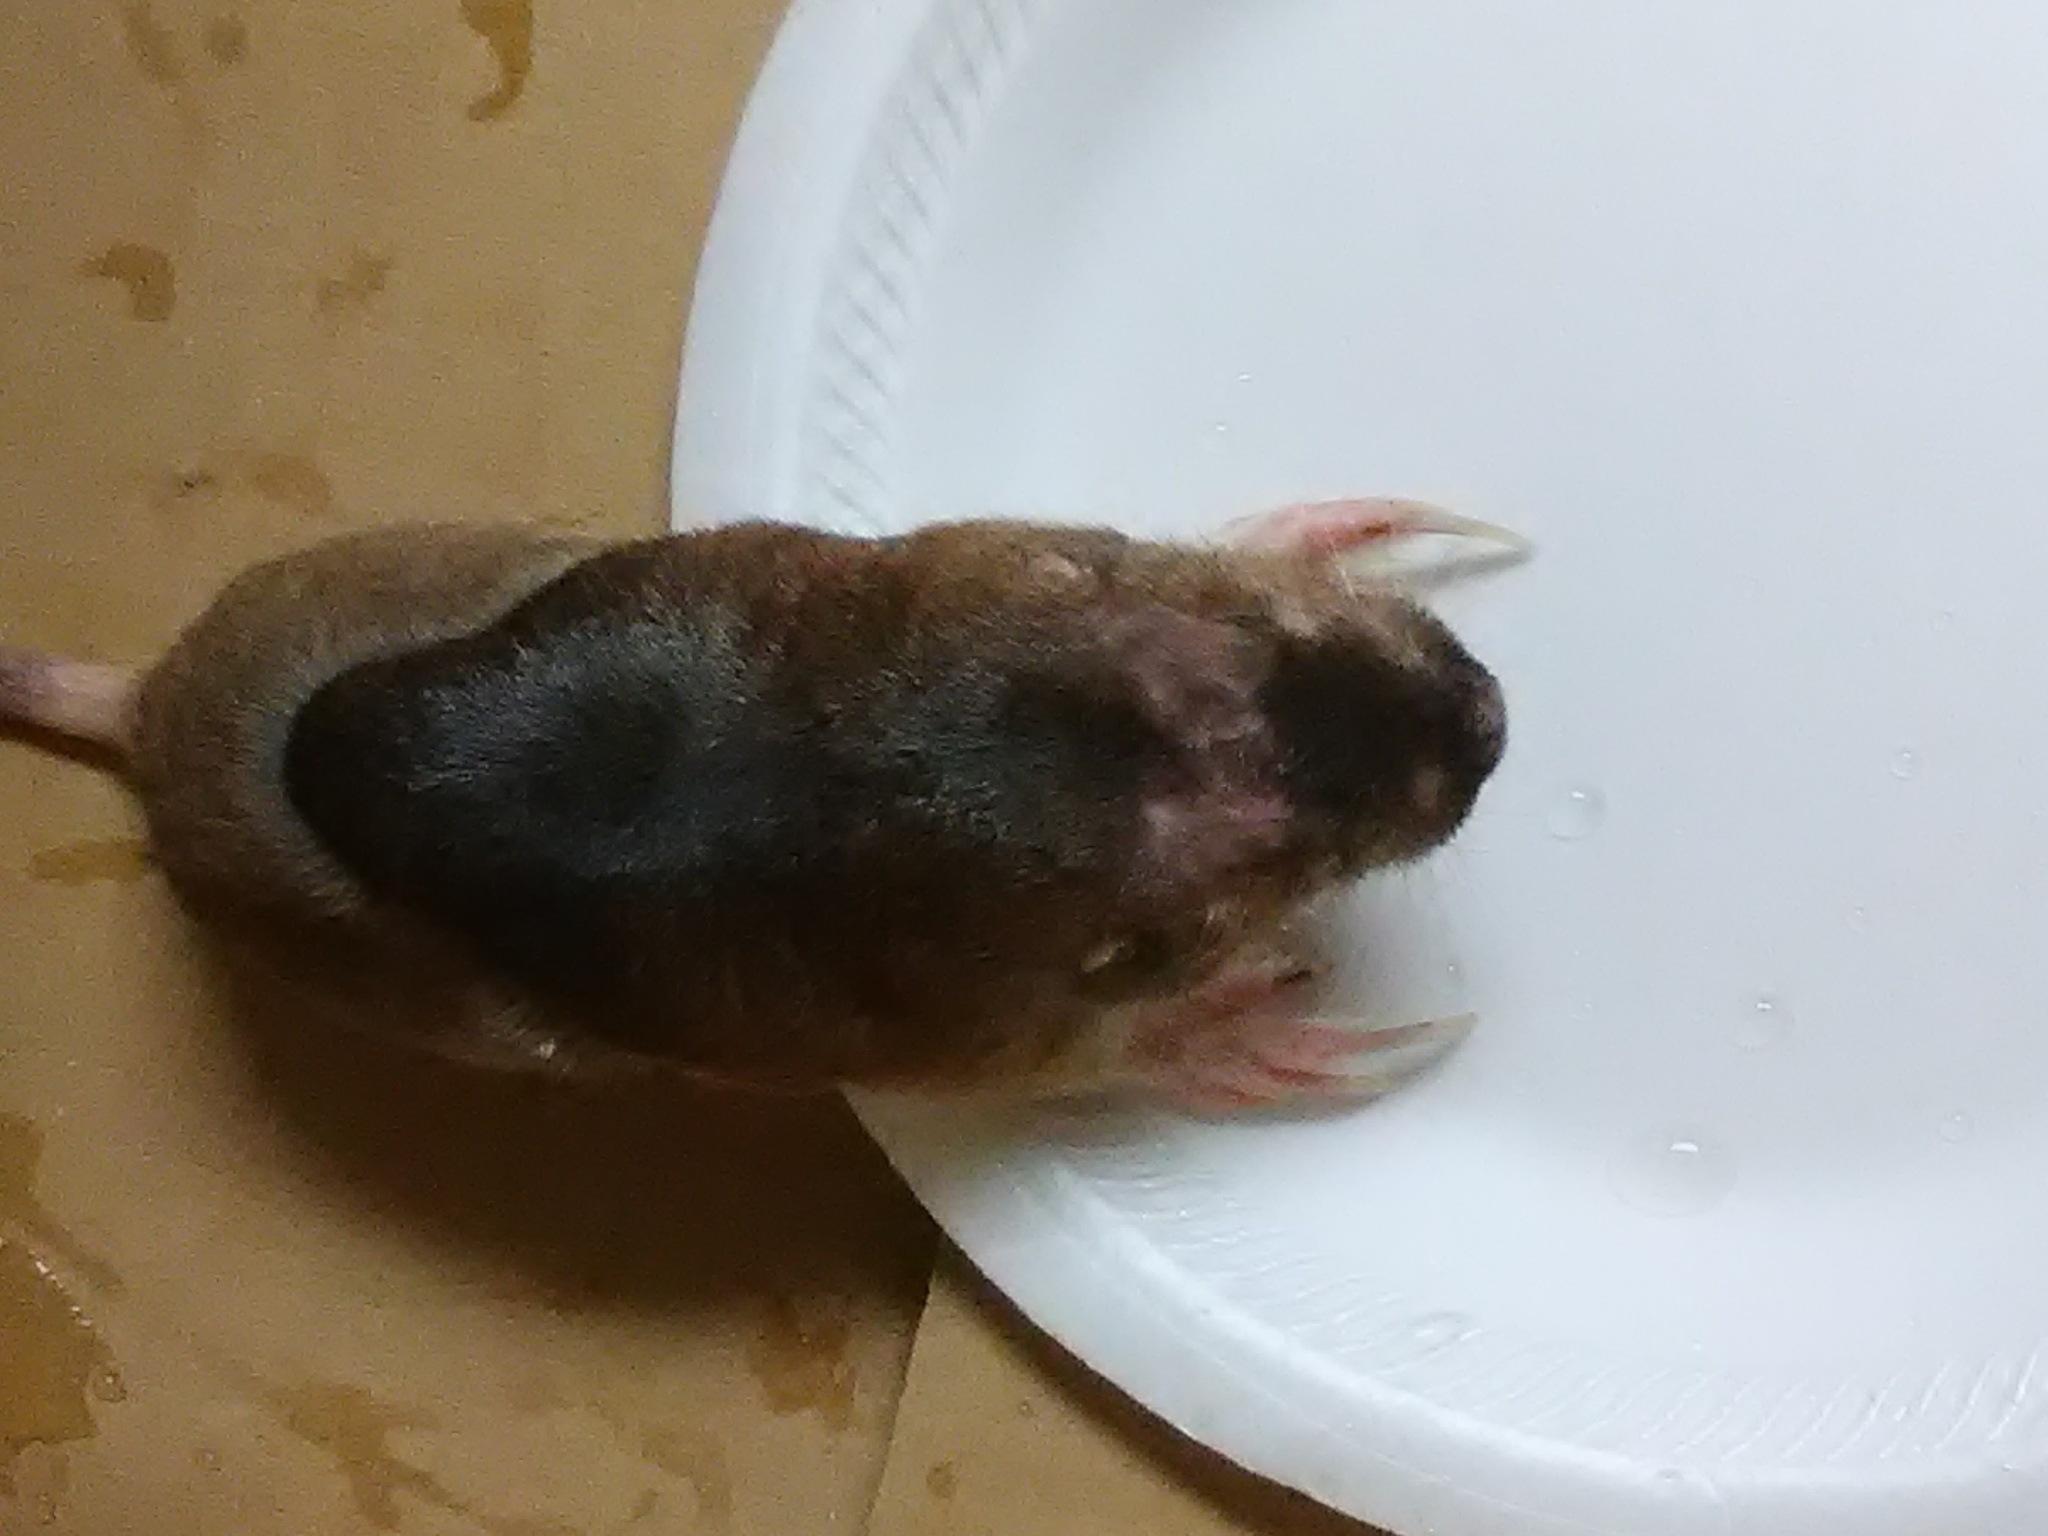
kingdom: Animalia
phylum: Chordata
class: Mammalia
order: Rodentia
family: Geomyidae
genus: Geomys
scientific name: Geomys breviceps
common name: Baird's pocket gopher
